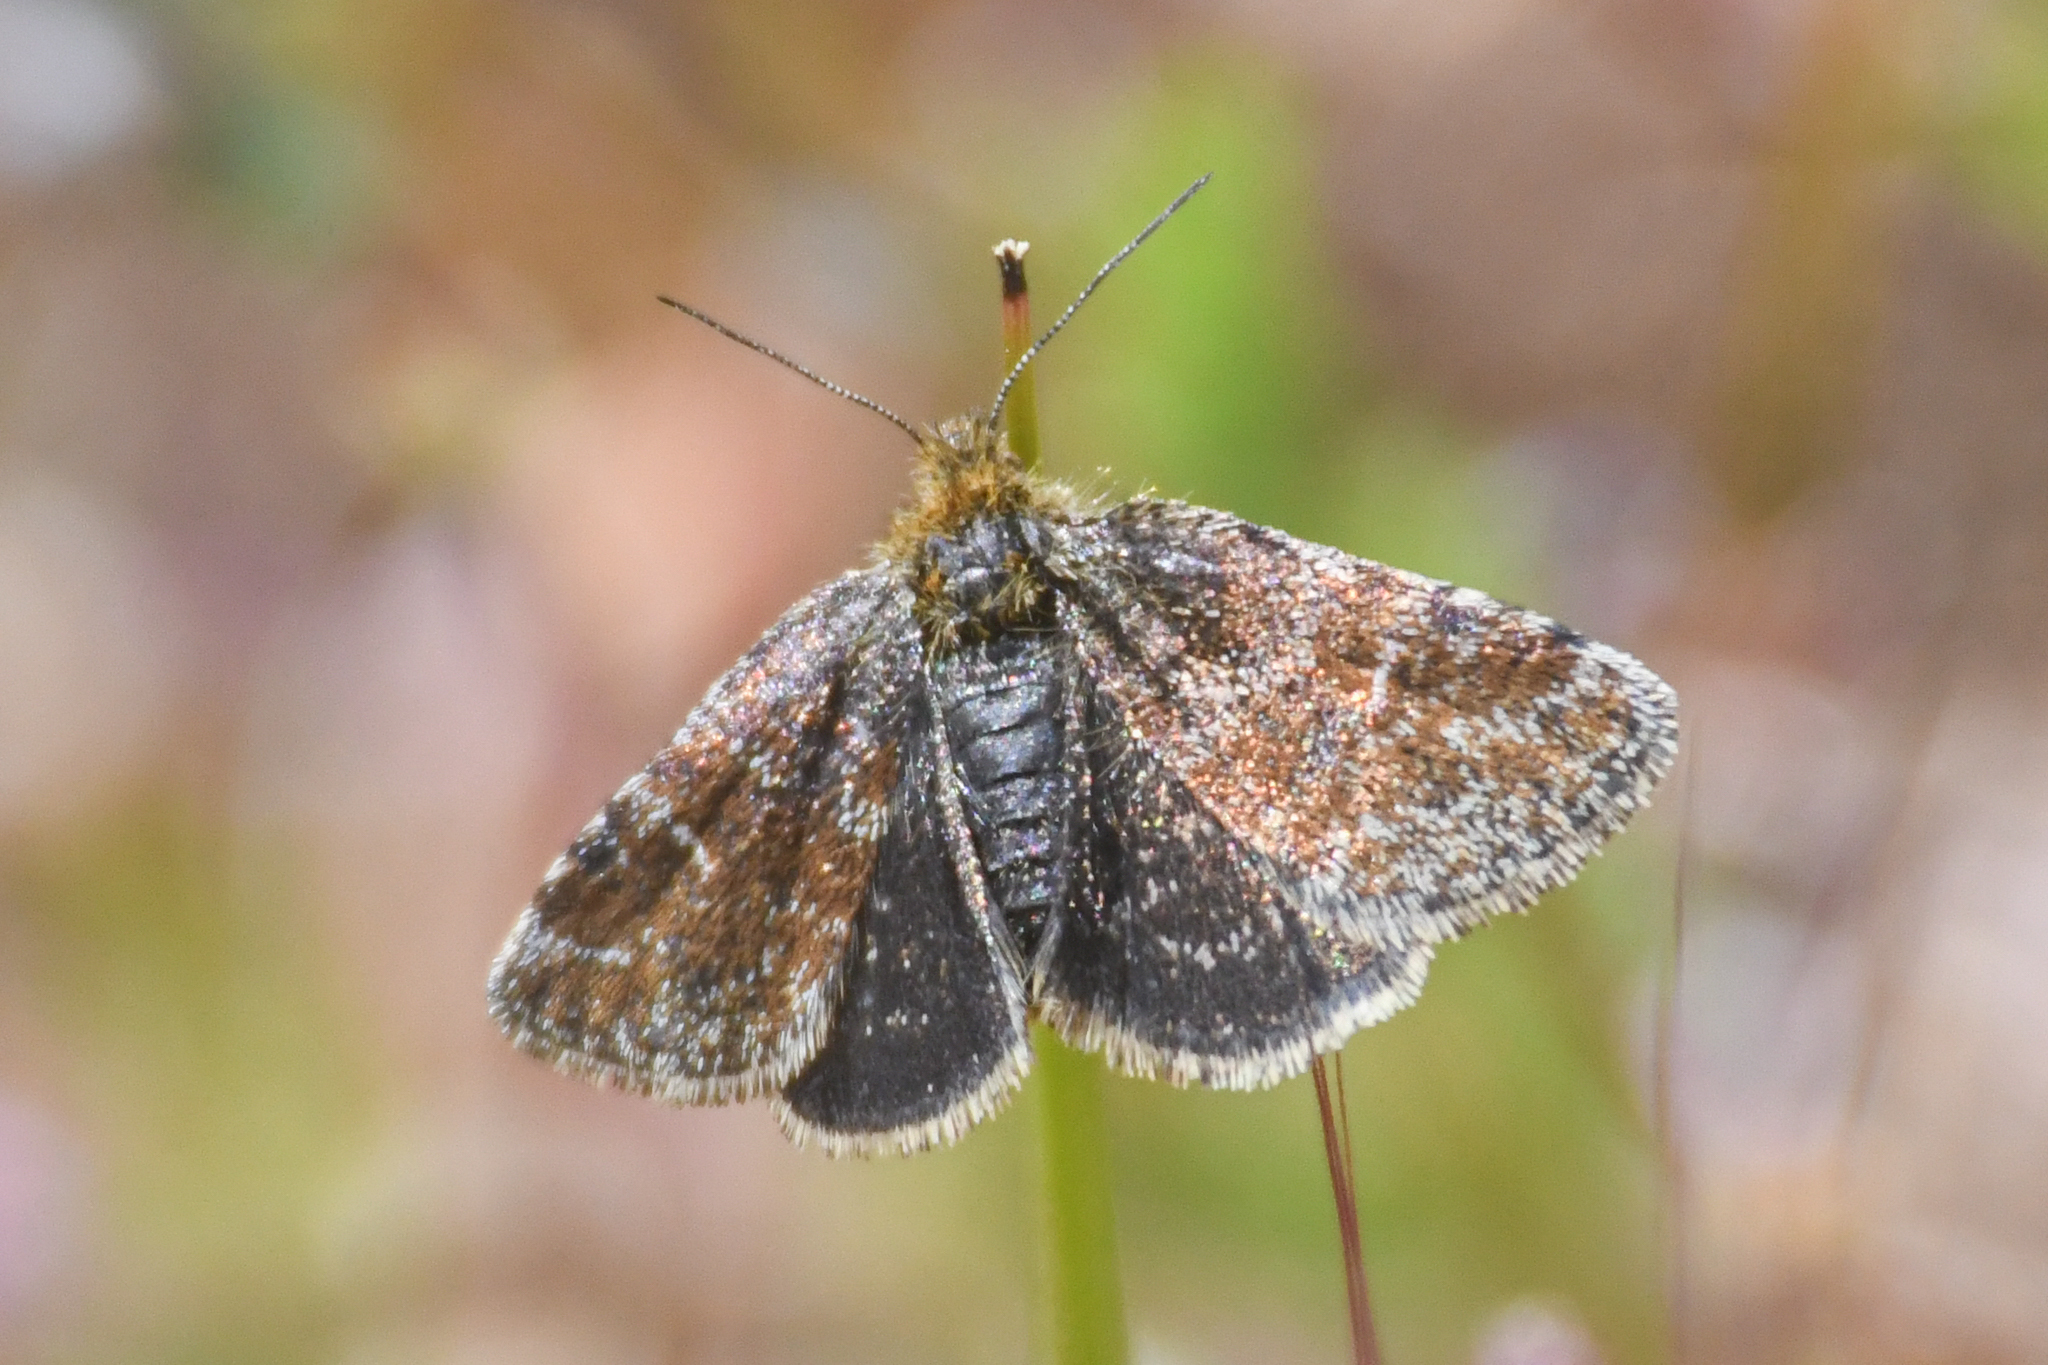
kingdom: Animalia
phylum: Arthropoda
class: Insecta
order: Lepidoptera
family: Noctuidae
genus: Axenus
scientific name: Axenus arvalis
